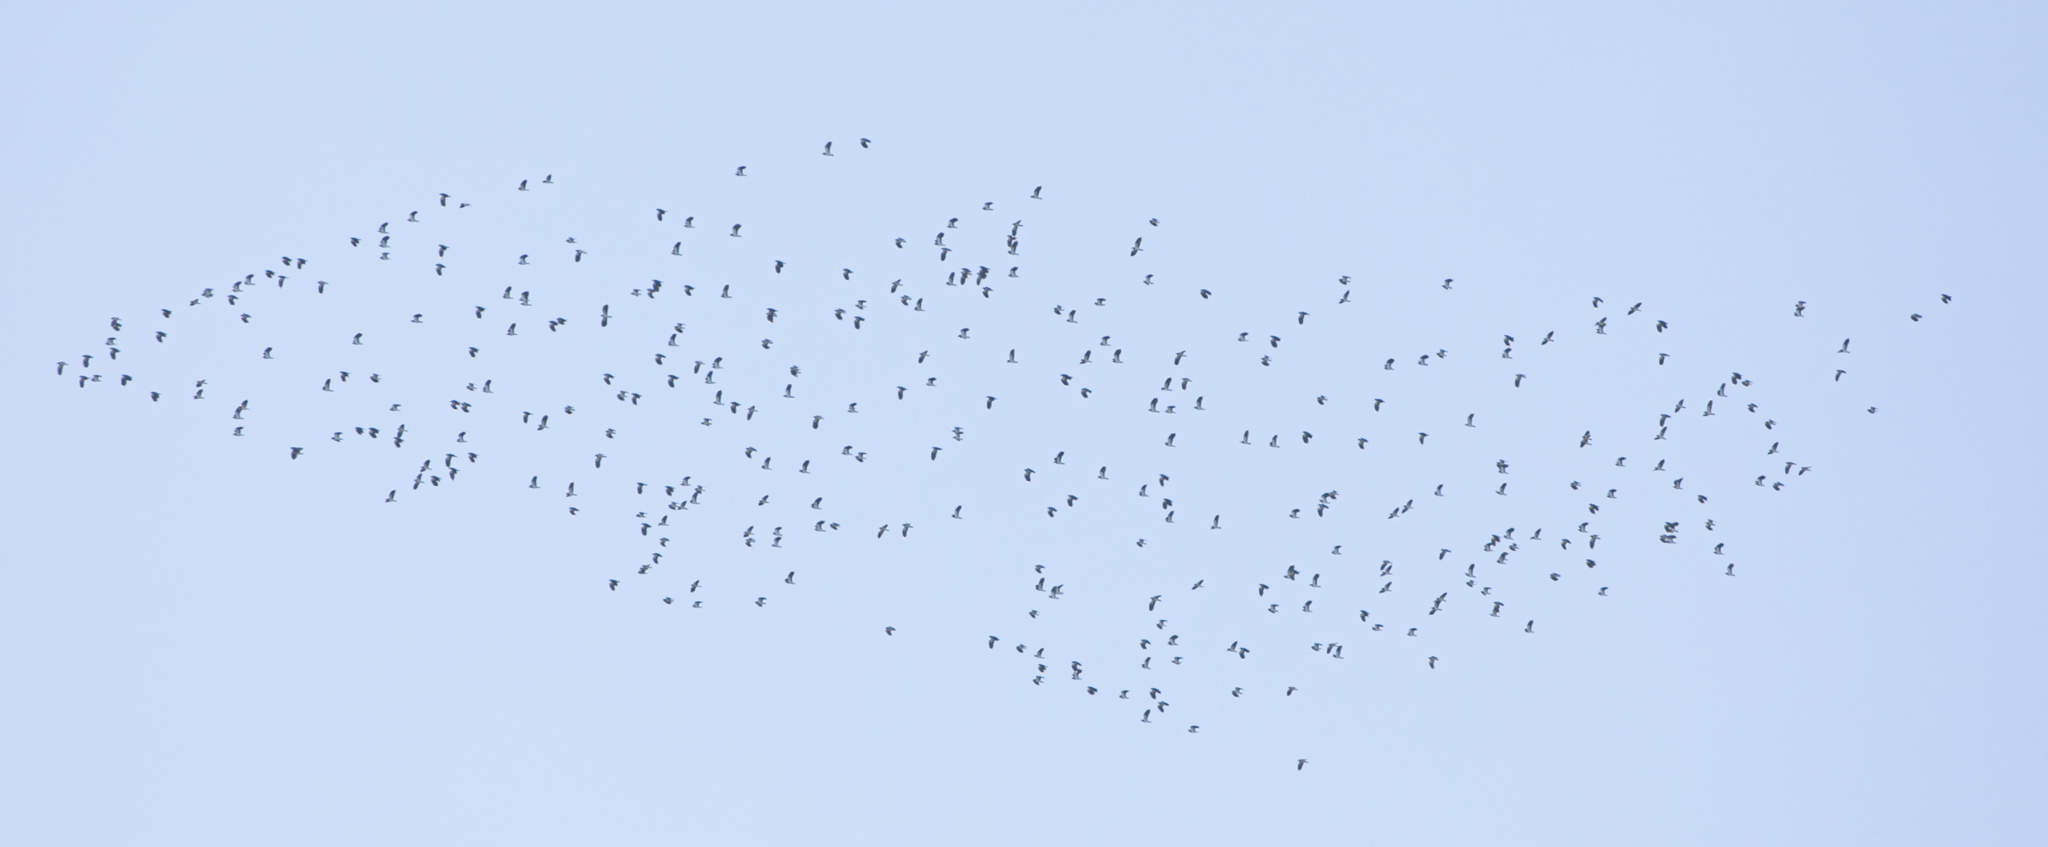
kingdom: Animalia
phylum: Chordata
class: Aves
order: Charadriiformes
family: Charadriidae
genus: Vanellus
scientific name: Vanellus vanellus
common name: Northern lapwing
